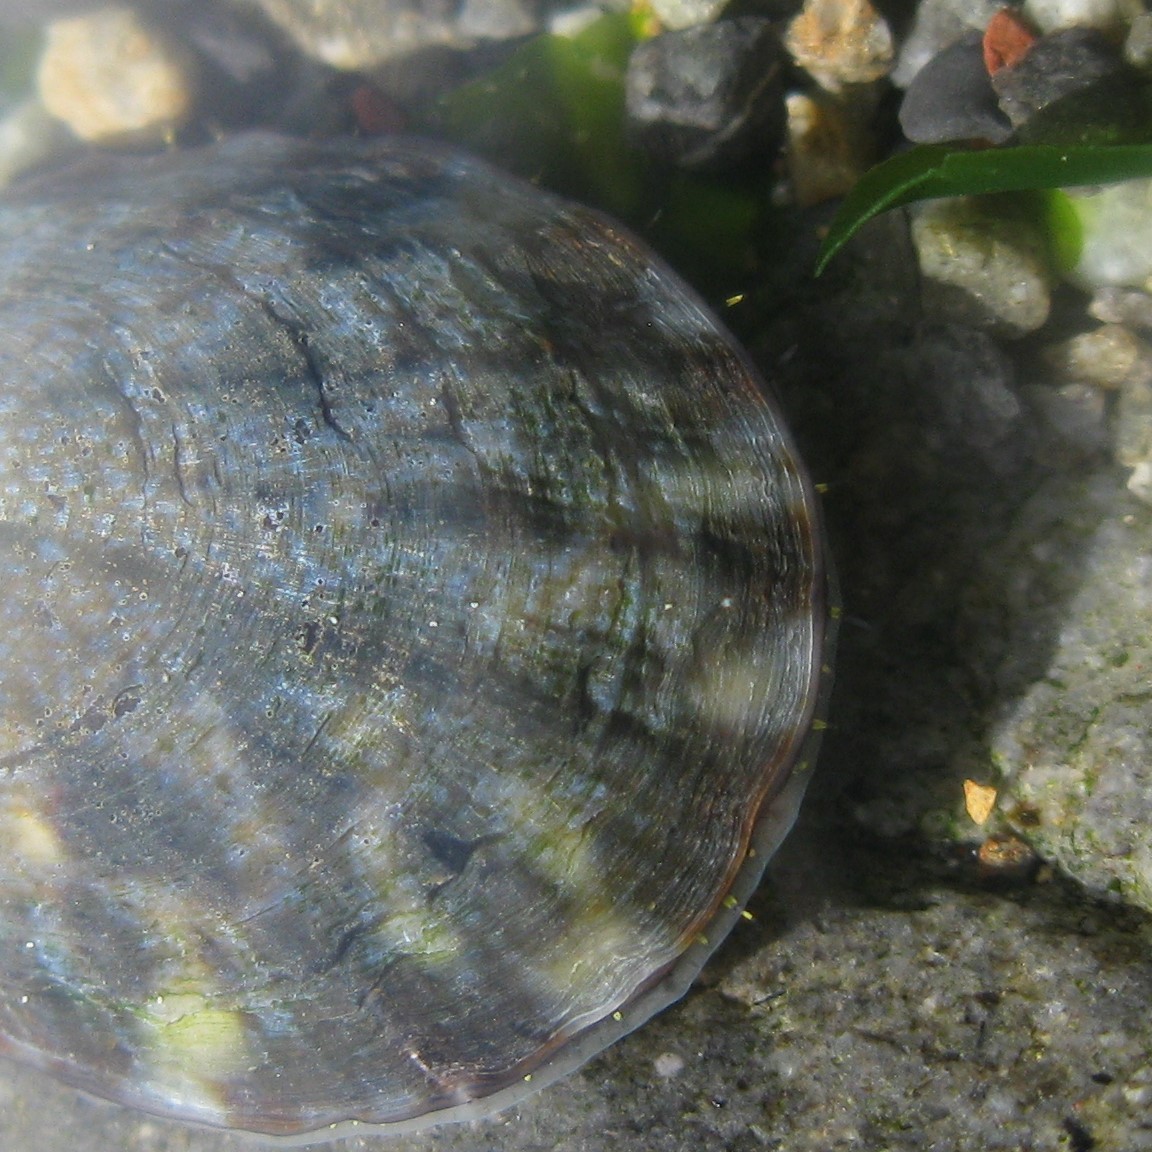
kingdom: Animalia
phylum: Mollusca
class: Gastropoda
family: Nacellidae
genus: Cellana
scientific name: Cellana radians
